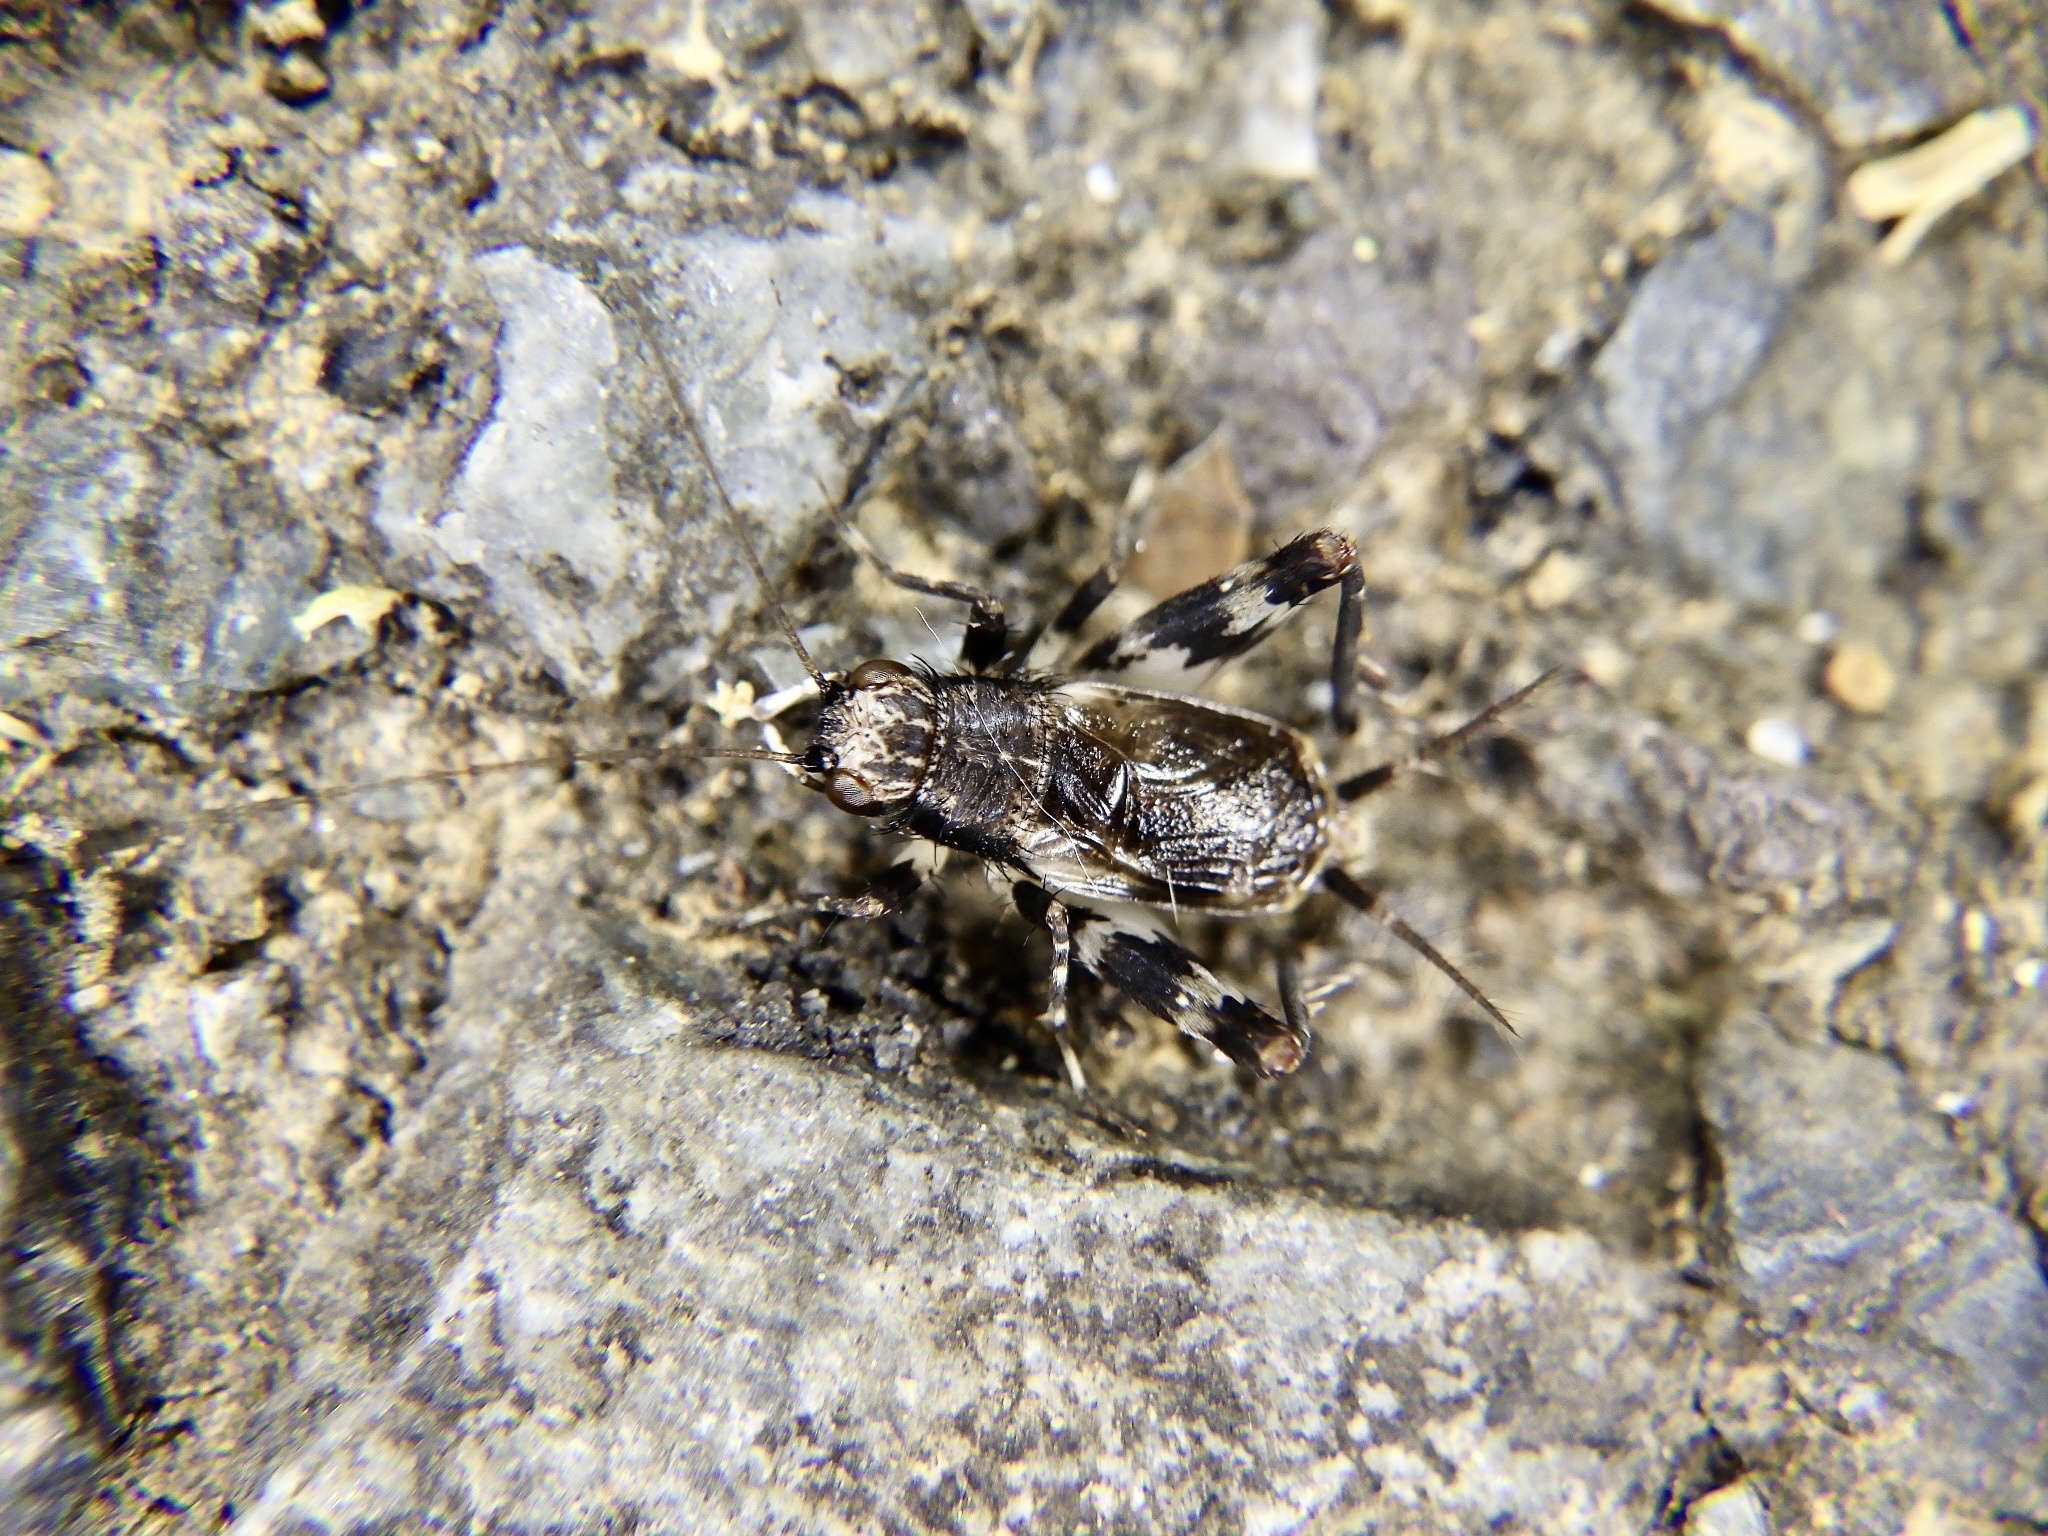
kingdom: Animalia
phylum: Arthropoda
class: Insecta
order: Orthoptera
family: Trigonidiidae
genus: Dianemobius
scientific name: Dianemobius fascipes
